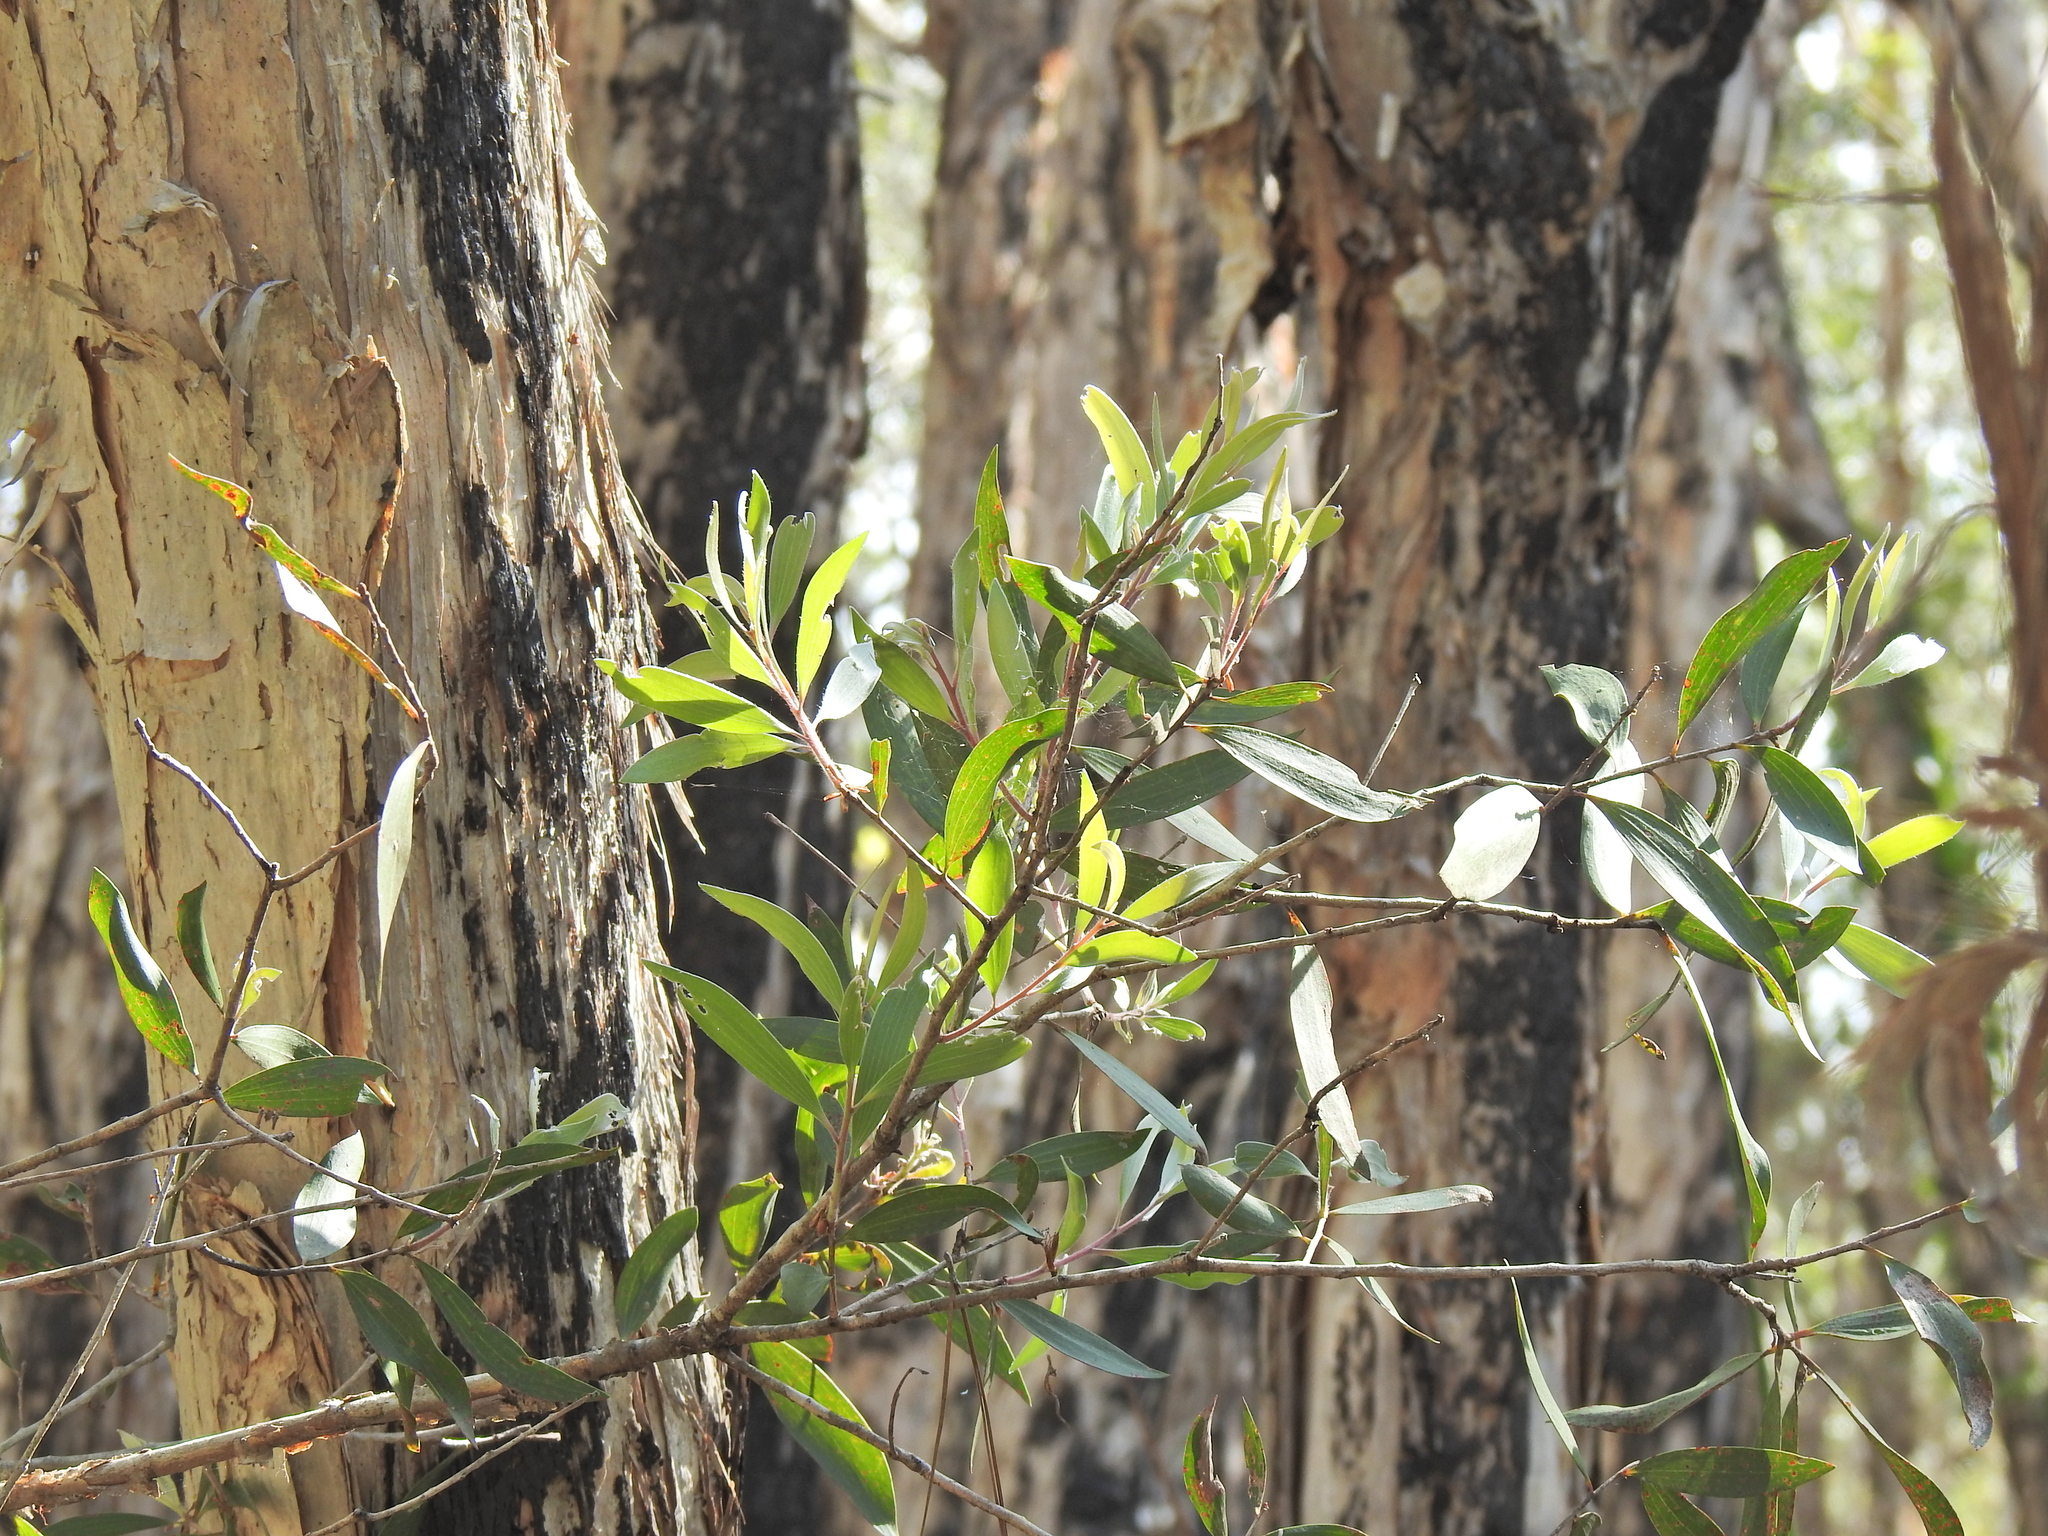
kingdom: Plantae
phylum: Tracheophyta
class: Magnoliopsida
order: Myrtales
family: Myrtaceae
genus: Melaleuca
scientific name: Melaleuca quinquenervia
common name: Punktree
